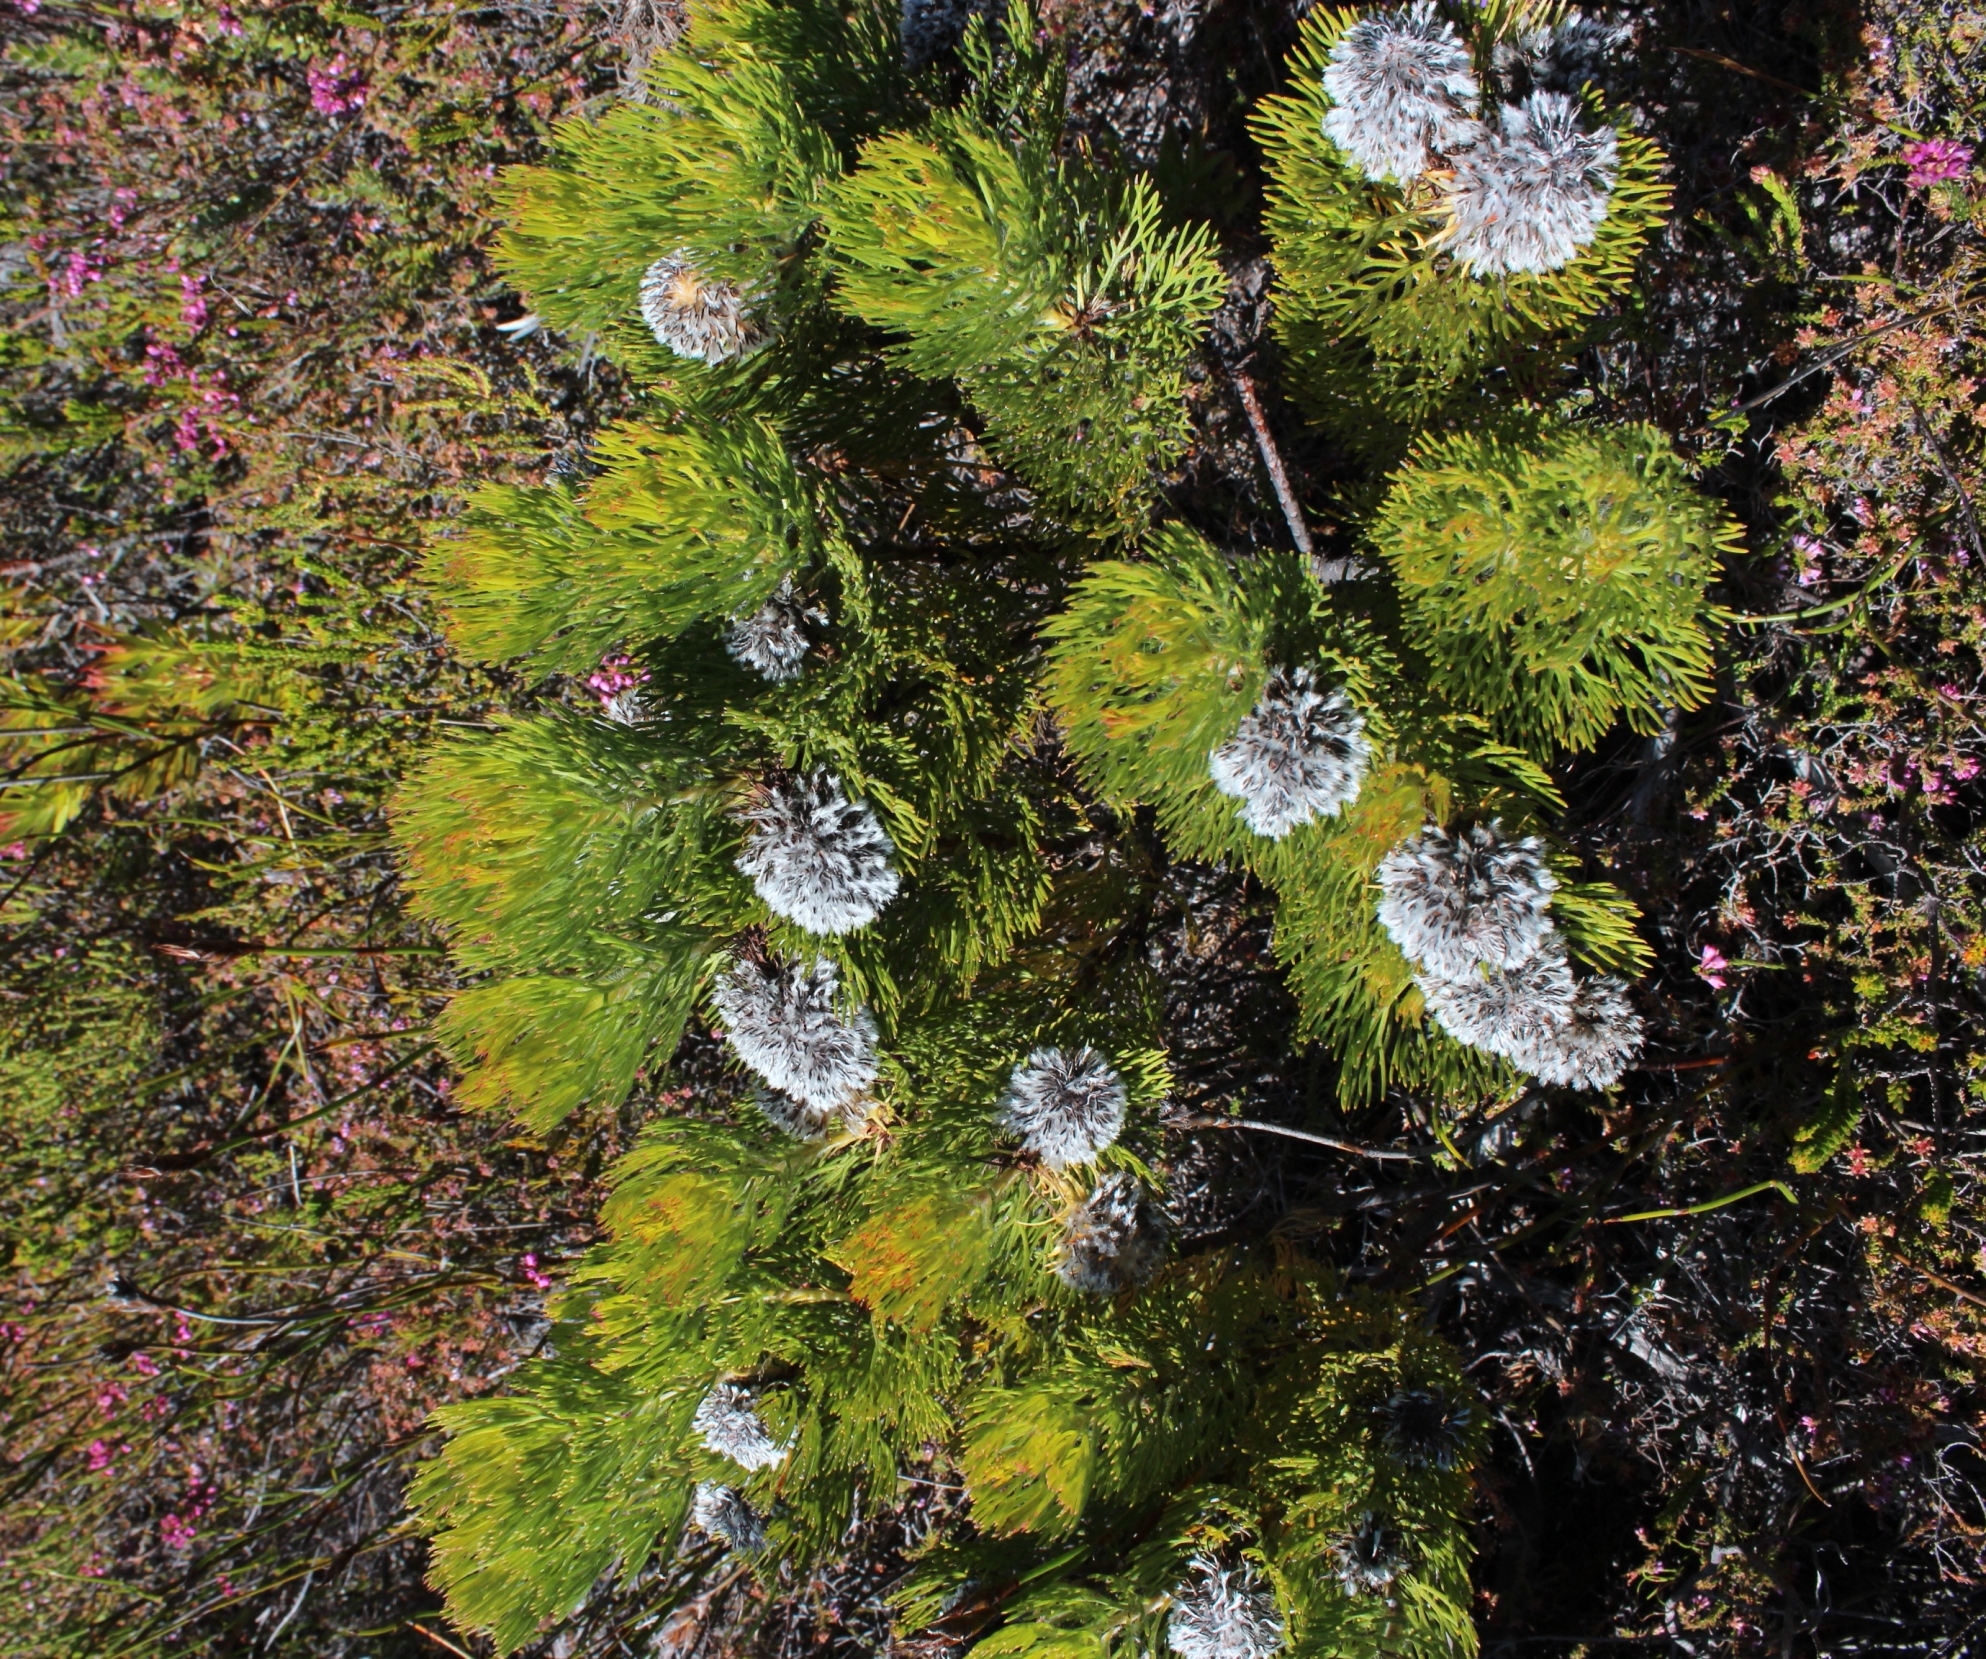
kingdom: Plantae
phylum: Tracheophyta
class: Magnoliopsida
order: Proteales
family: Proteaceae
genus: Serruria
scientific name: Serruria hirsuta
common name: Swartkops spiderhead
